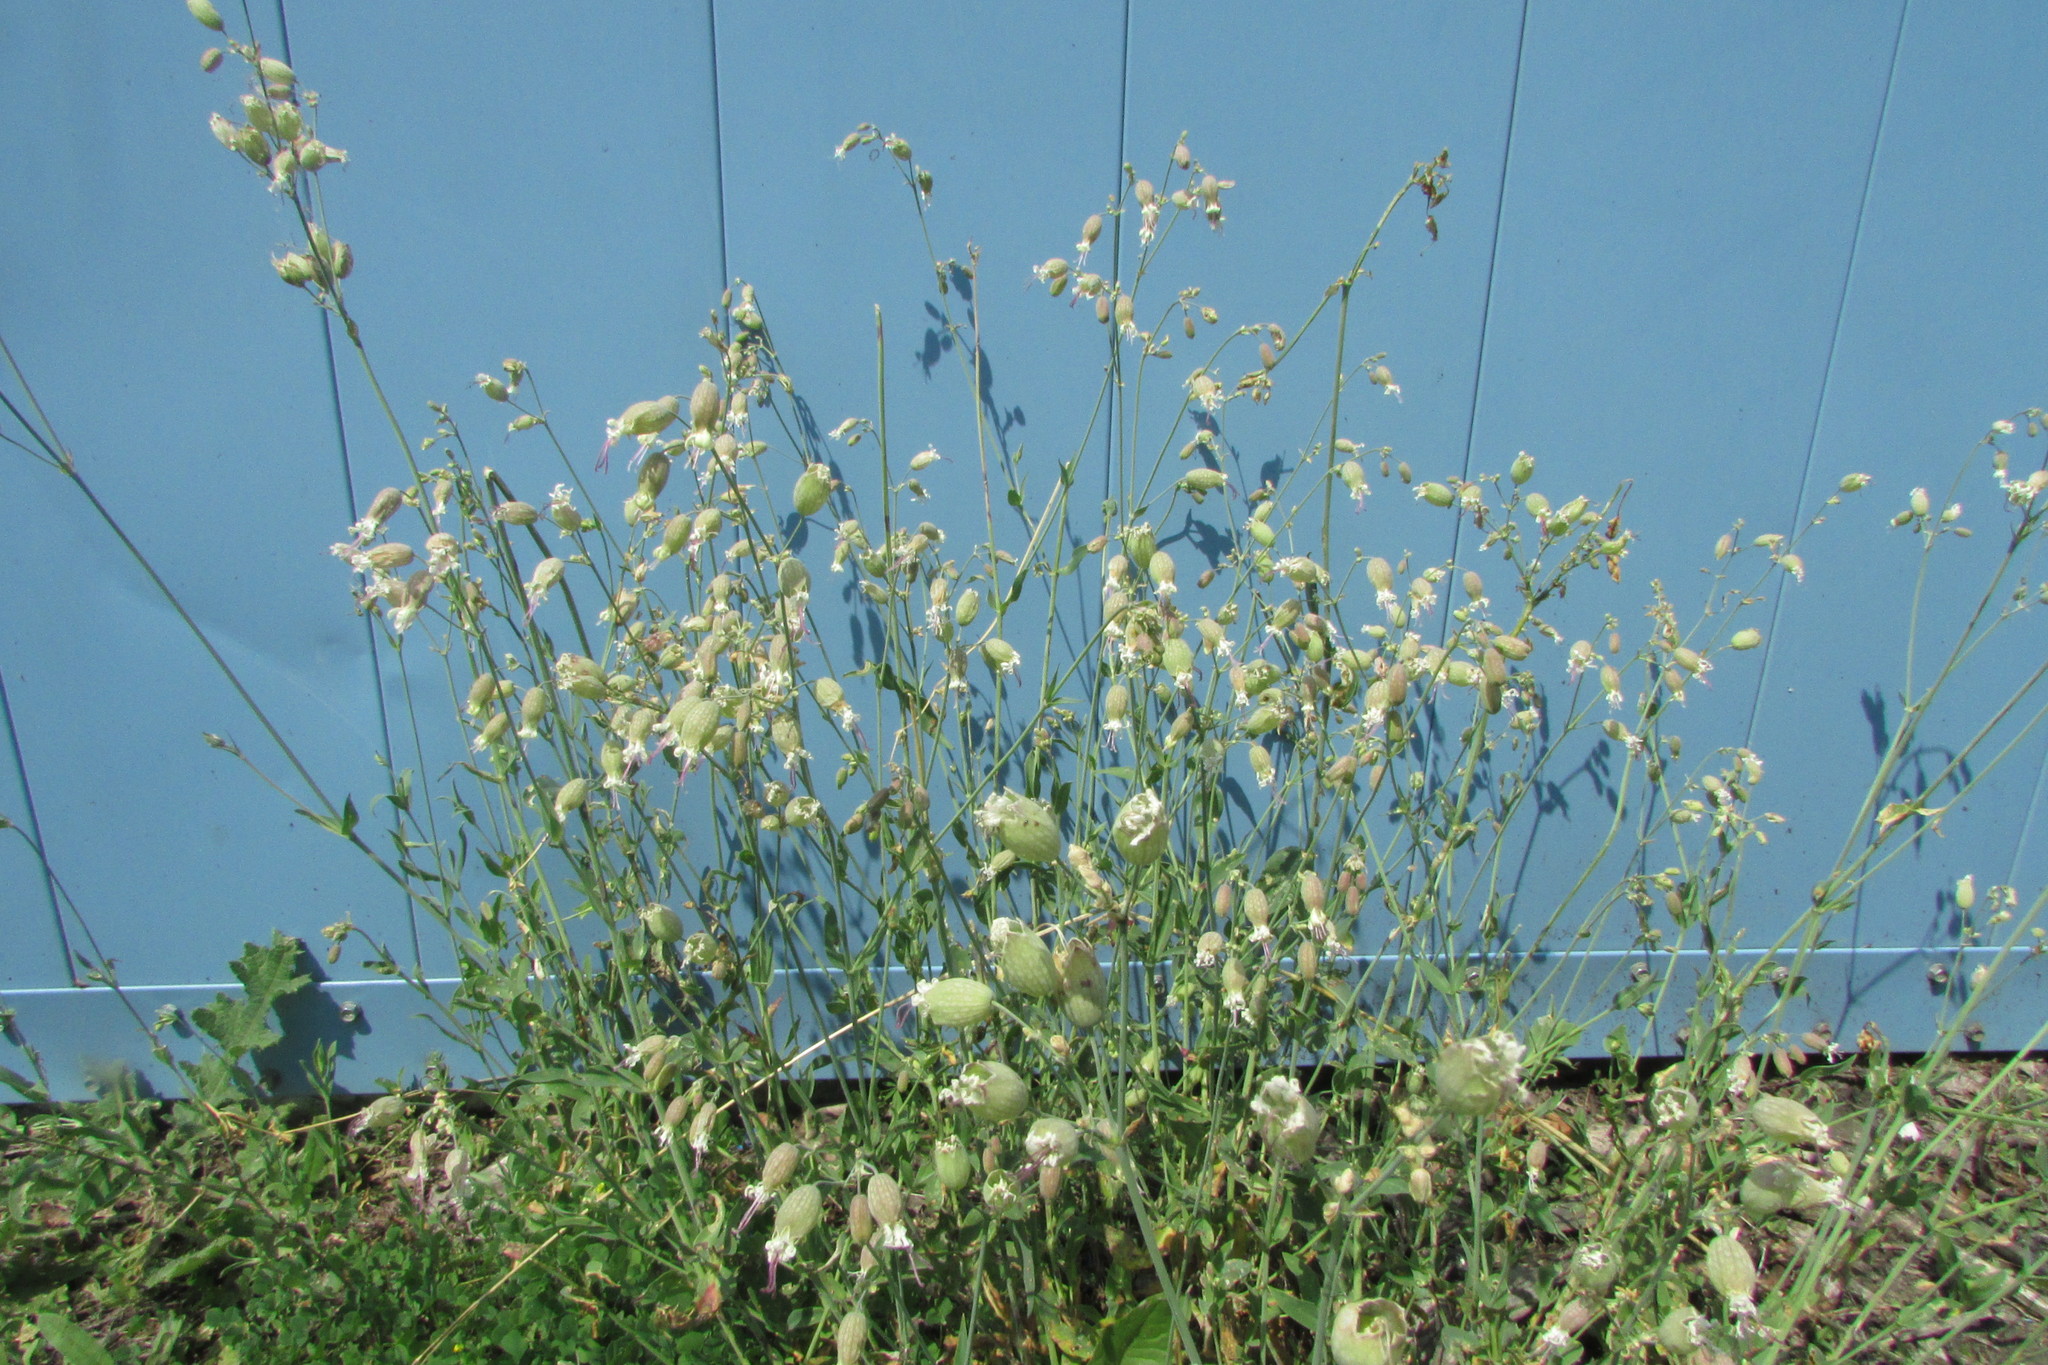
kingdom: Plantae
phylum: Tracheophyta
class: Magnoliopsida
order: Caryophyllales
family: Caryophyllaceae
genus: Silene
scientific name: Silene vulgaris
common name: Bladder campion
